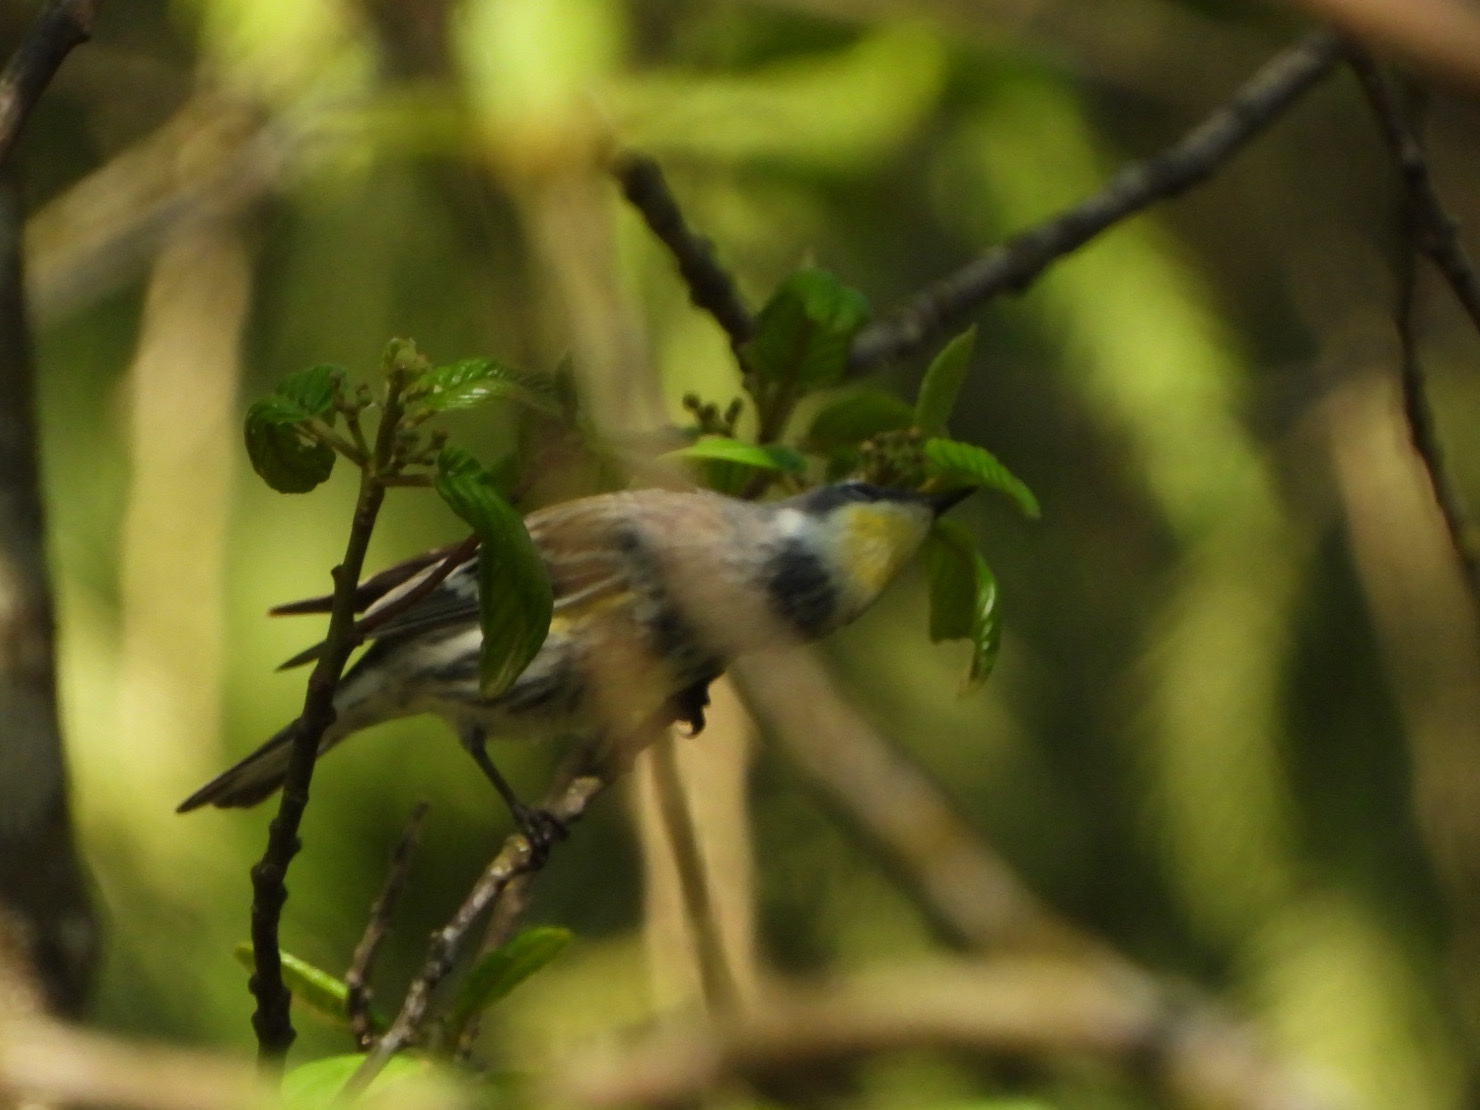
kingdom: Animalia
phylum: Chordata
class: Aves
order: Passeriformes
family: Parulidae
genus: Setophaga
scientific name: Setophaga
